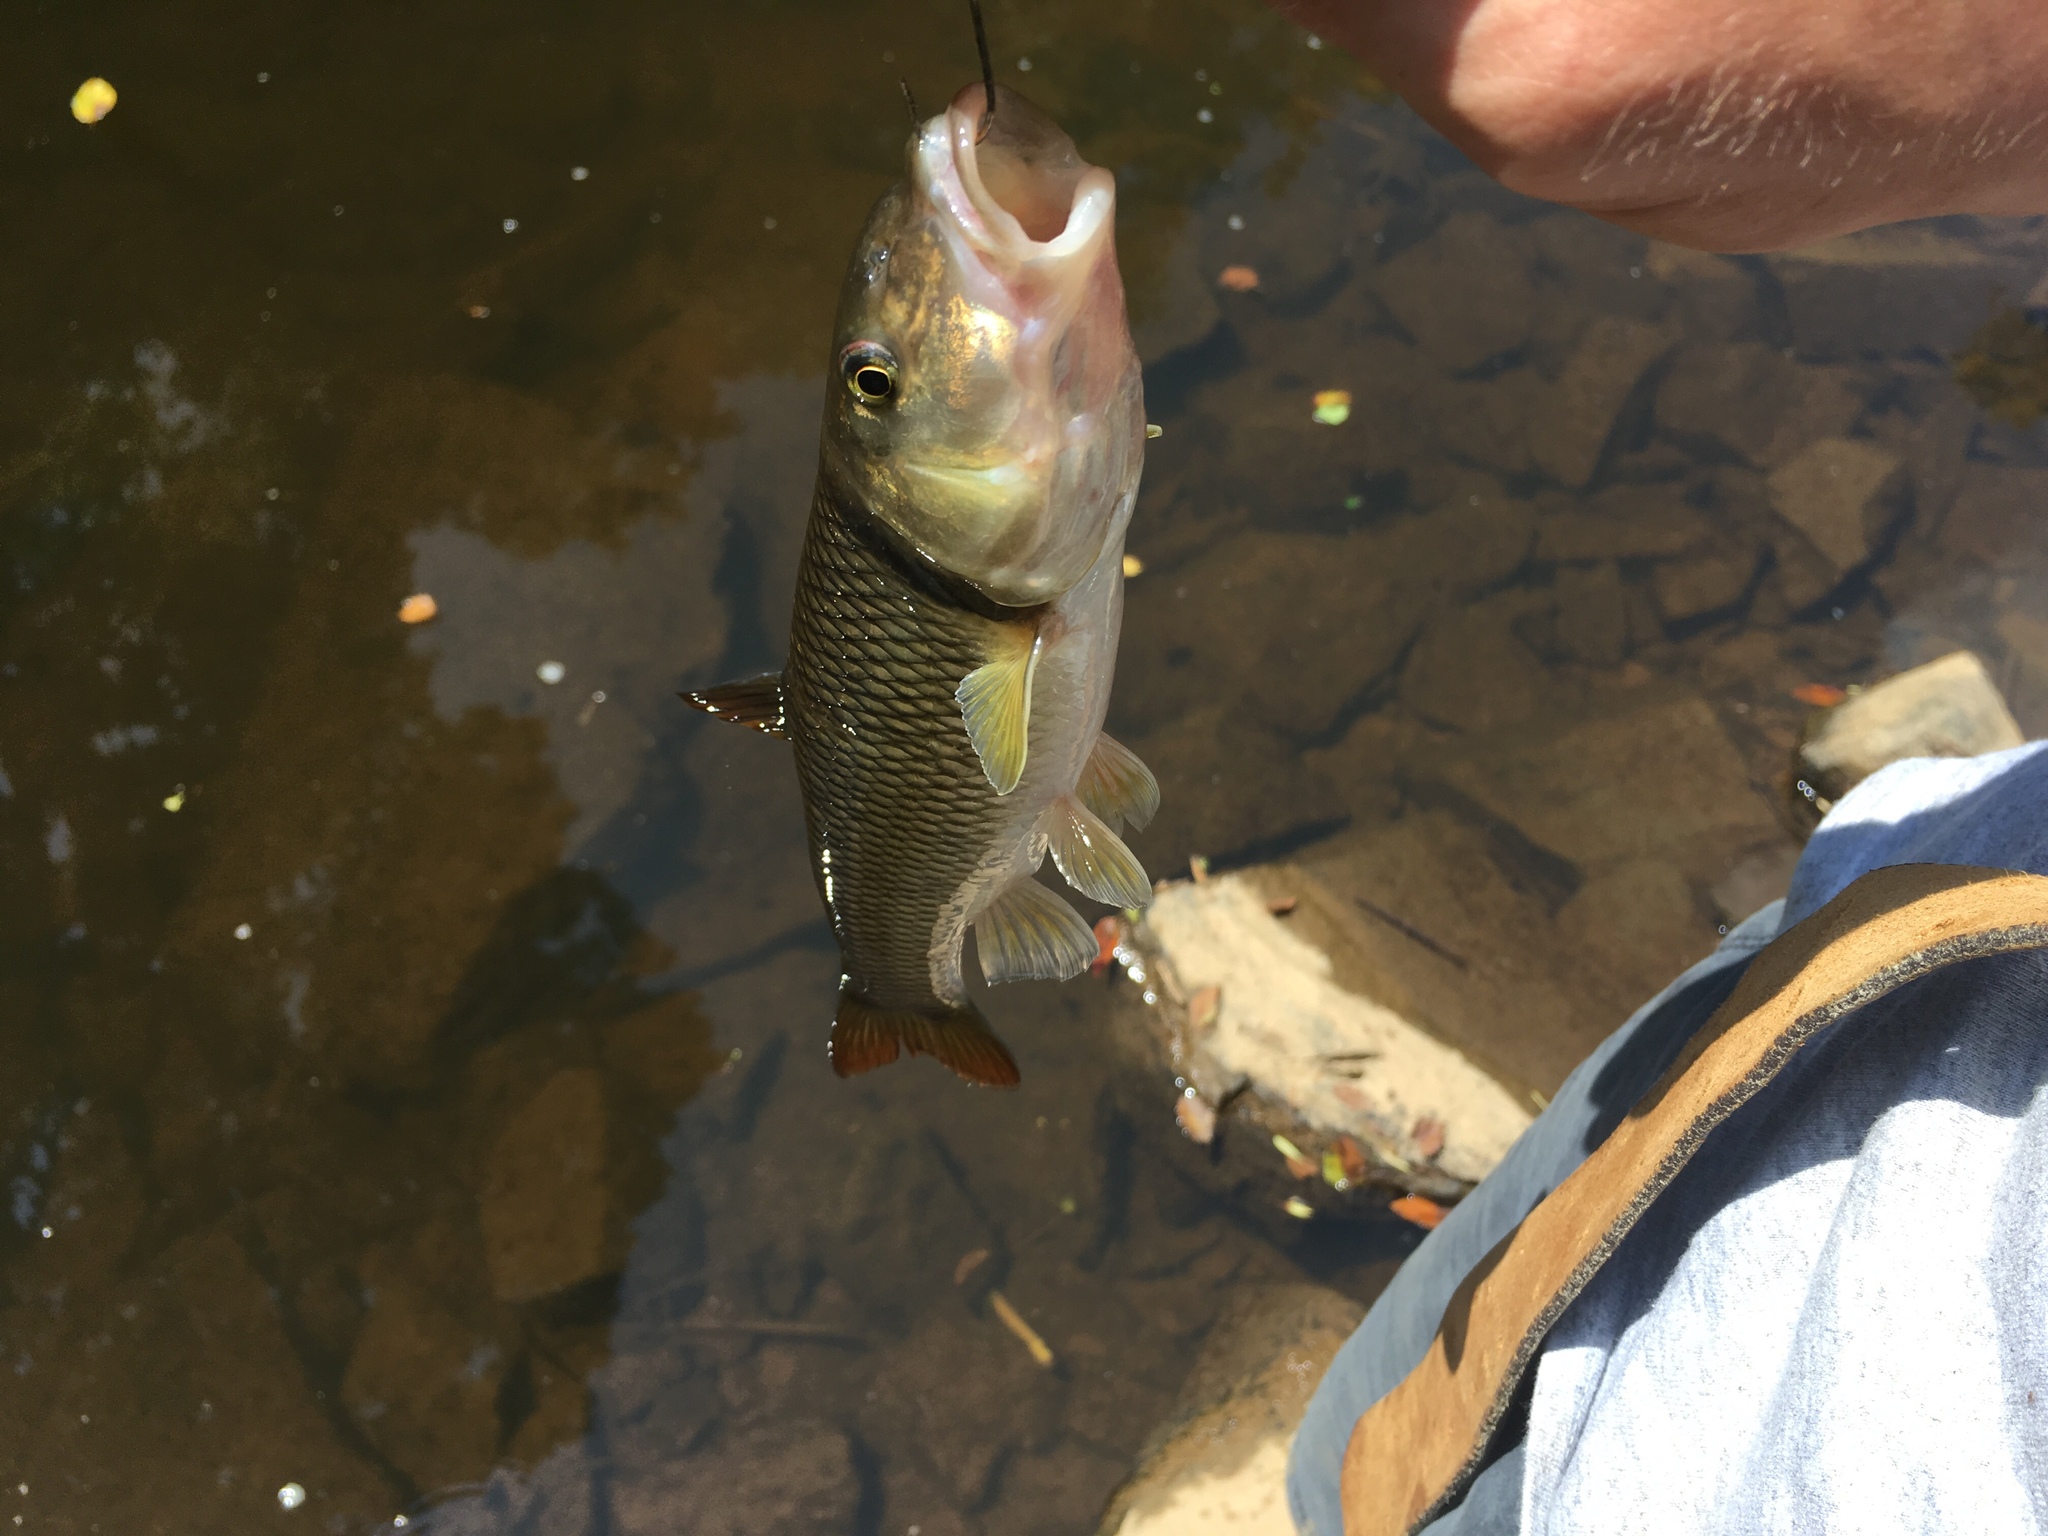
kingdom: Animalia
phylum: Chordata
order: Cypriniformes
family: Cyprinidae
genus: Nocomis
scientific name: Nocomis raneyi
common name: Bull chub
